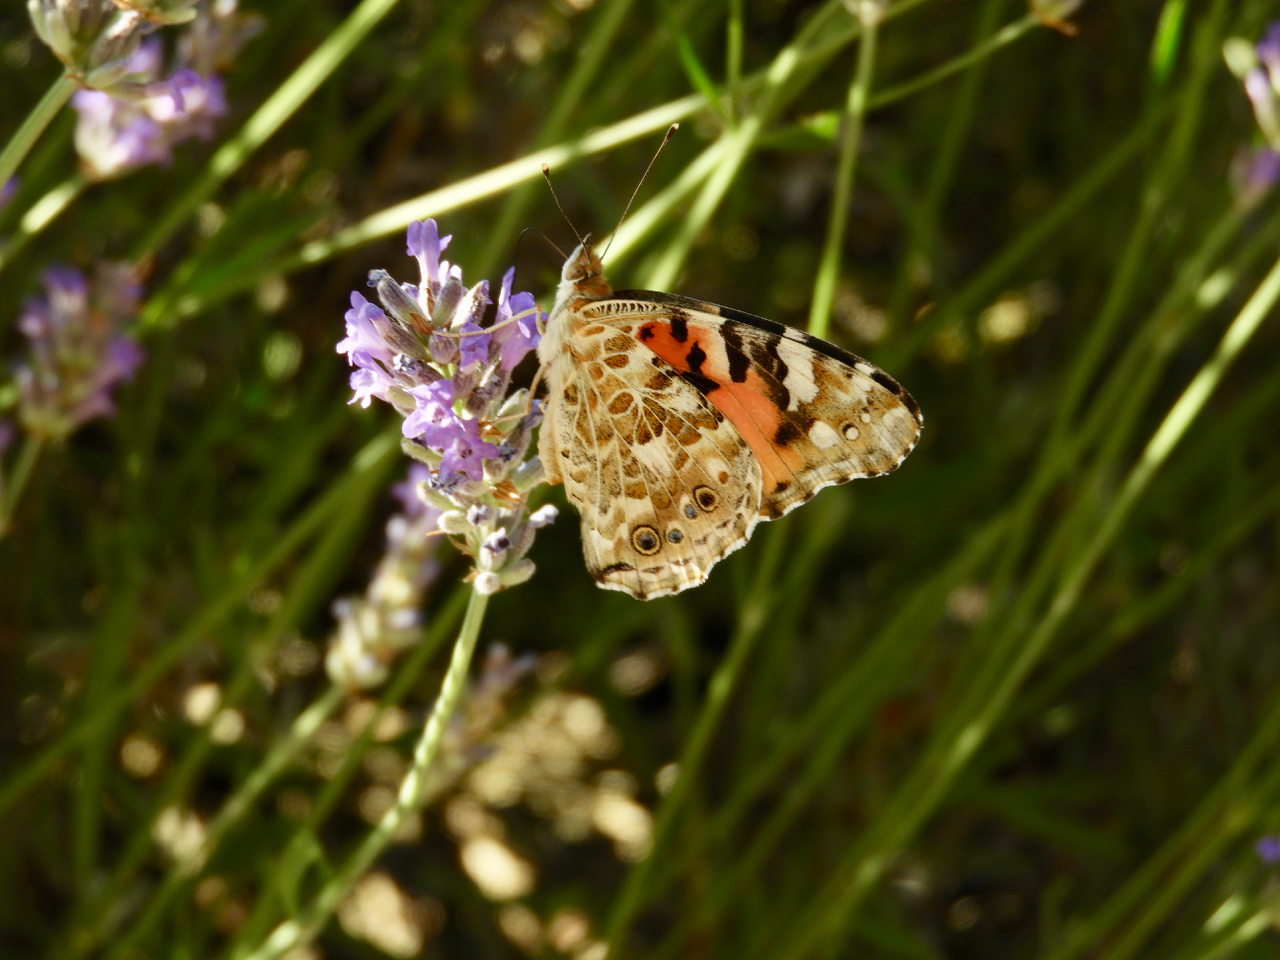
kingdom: Animalia
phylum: Arthropoda
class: Insecta
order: Lepidoptera
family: Nymphalidae
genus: Vanessa
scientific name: Vanessa cardui
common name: Painted lady
